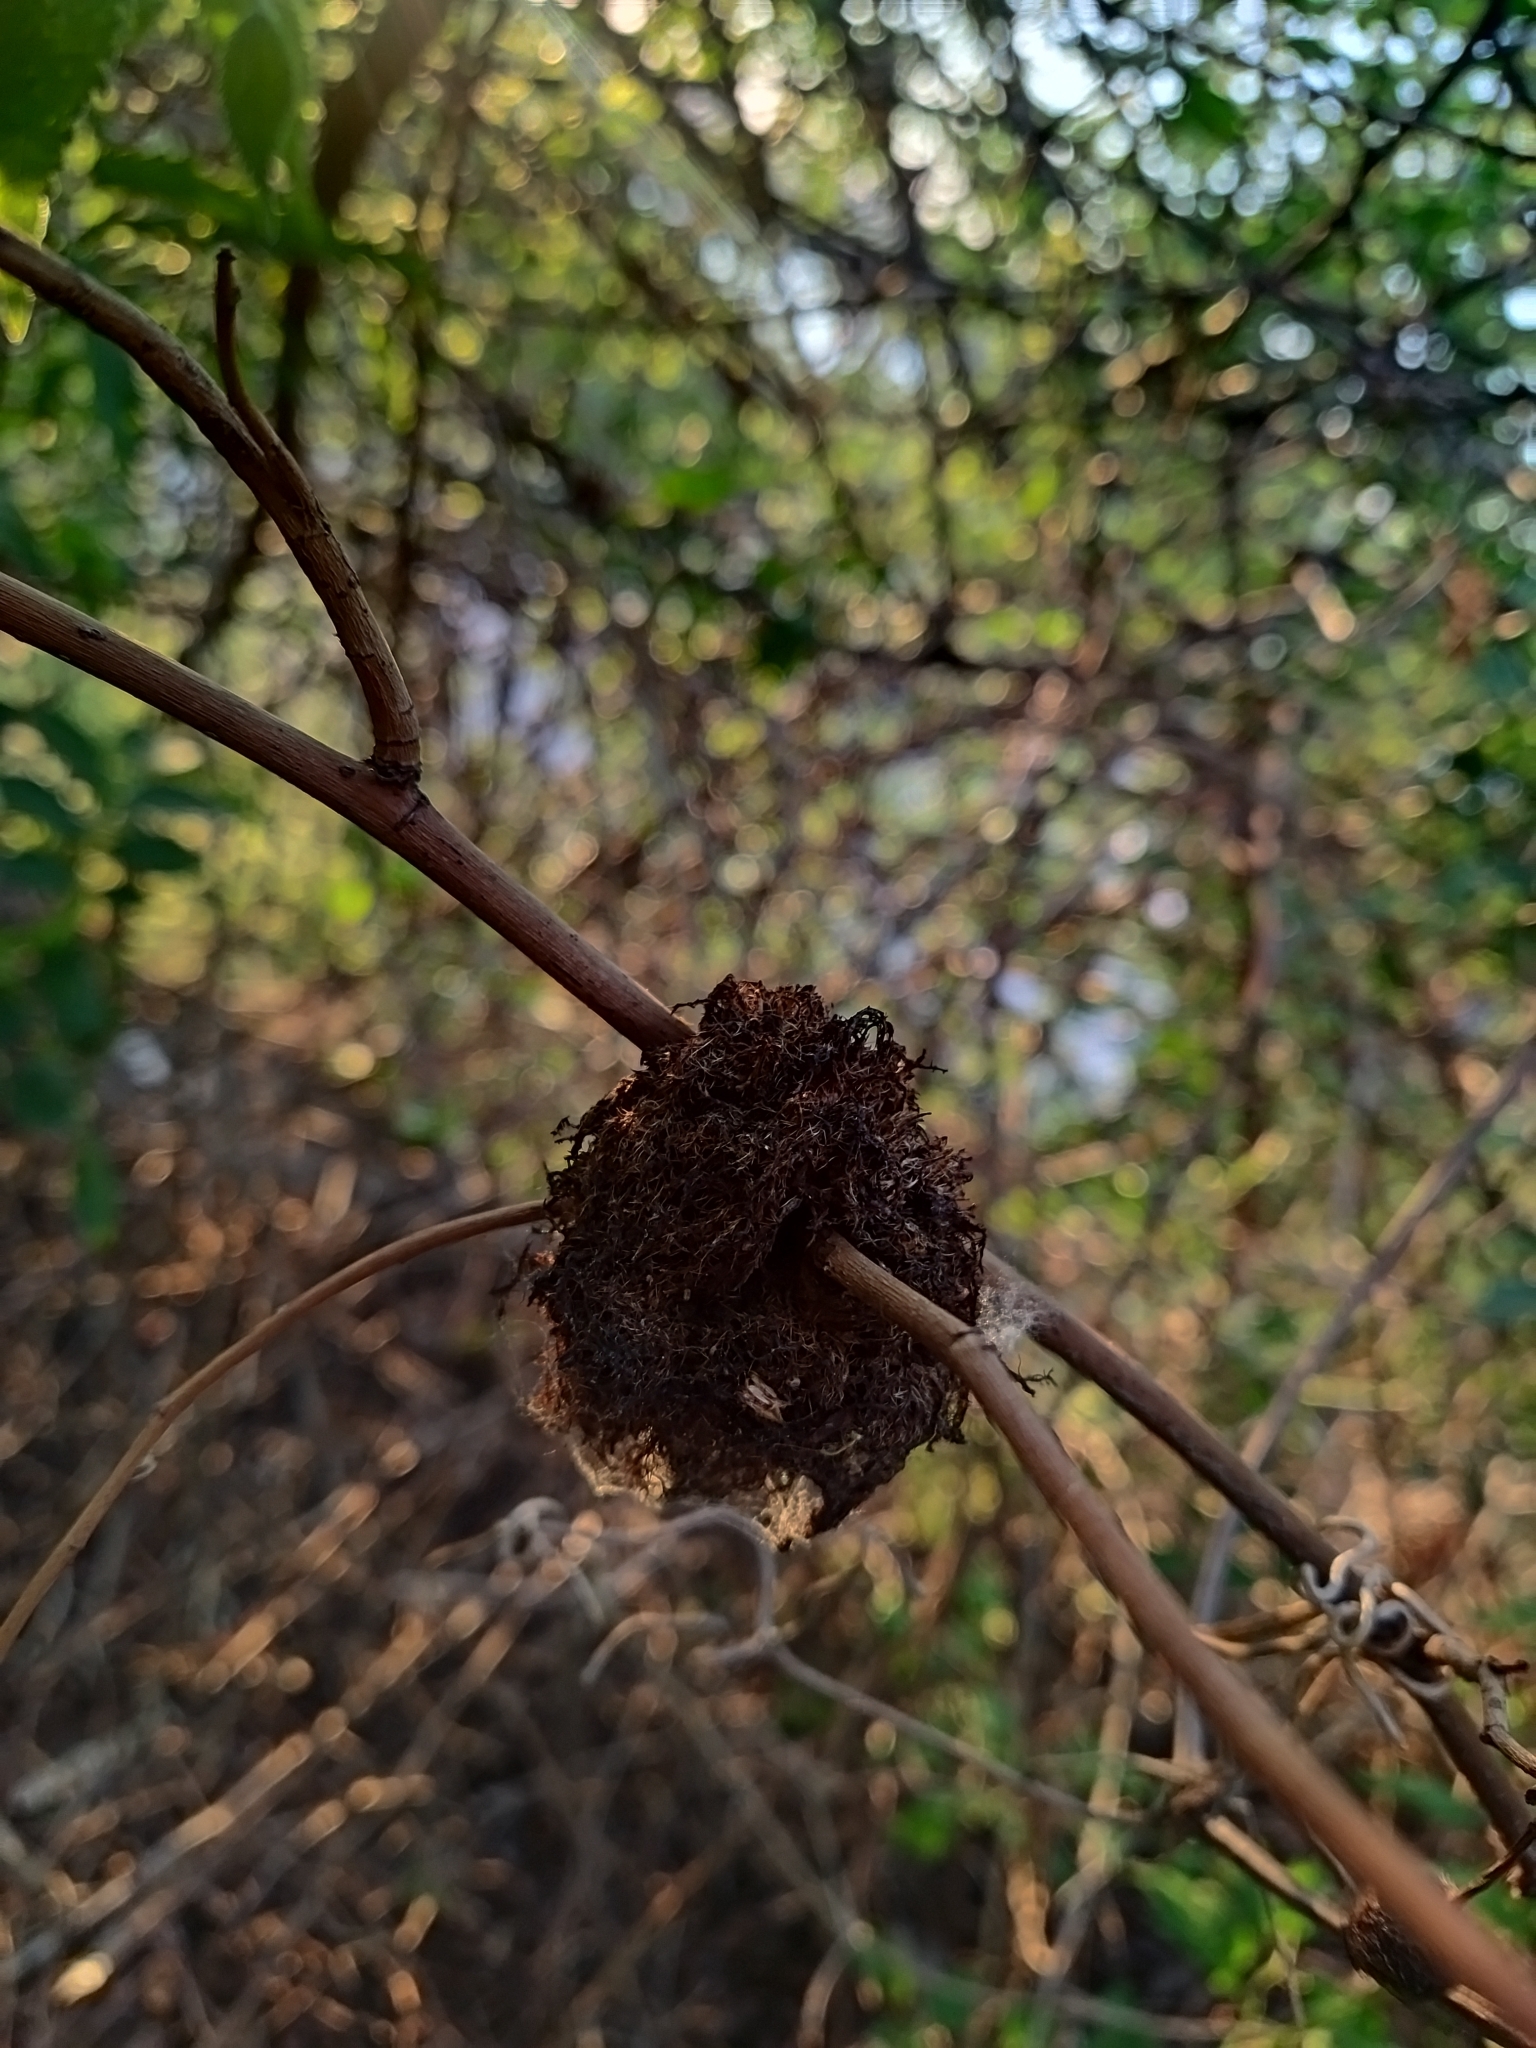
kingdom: Animalia
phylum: Arthropoda
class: Insecta
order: Hymenoptera
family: Cynipidae
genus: Diplolepis
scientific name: Diplolepis rosae
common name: Bedeguar gall
